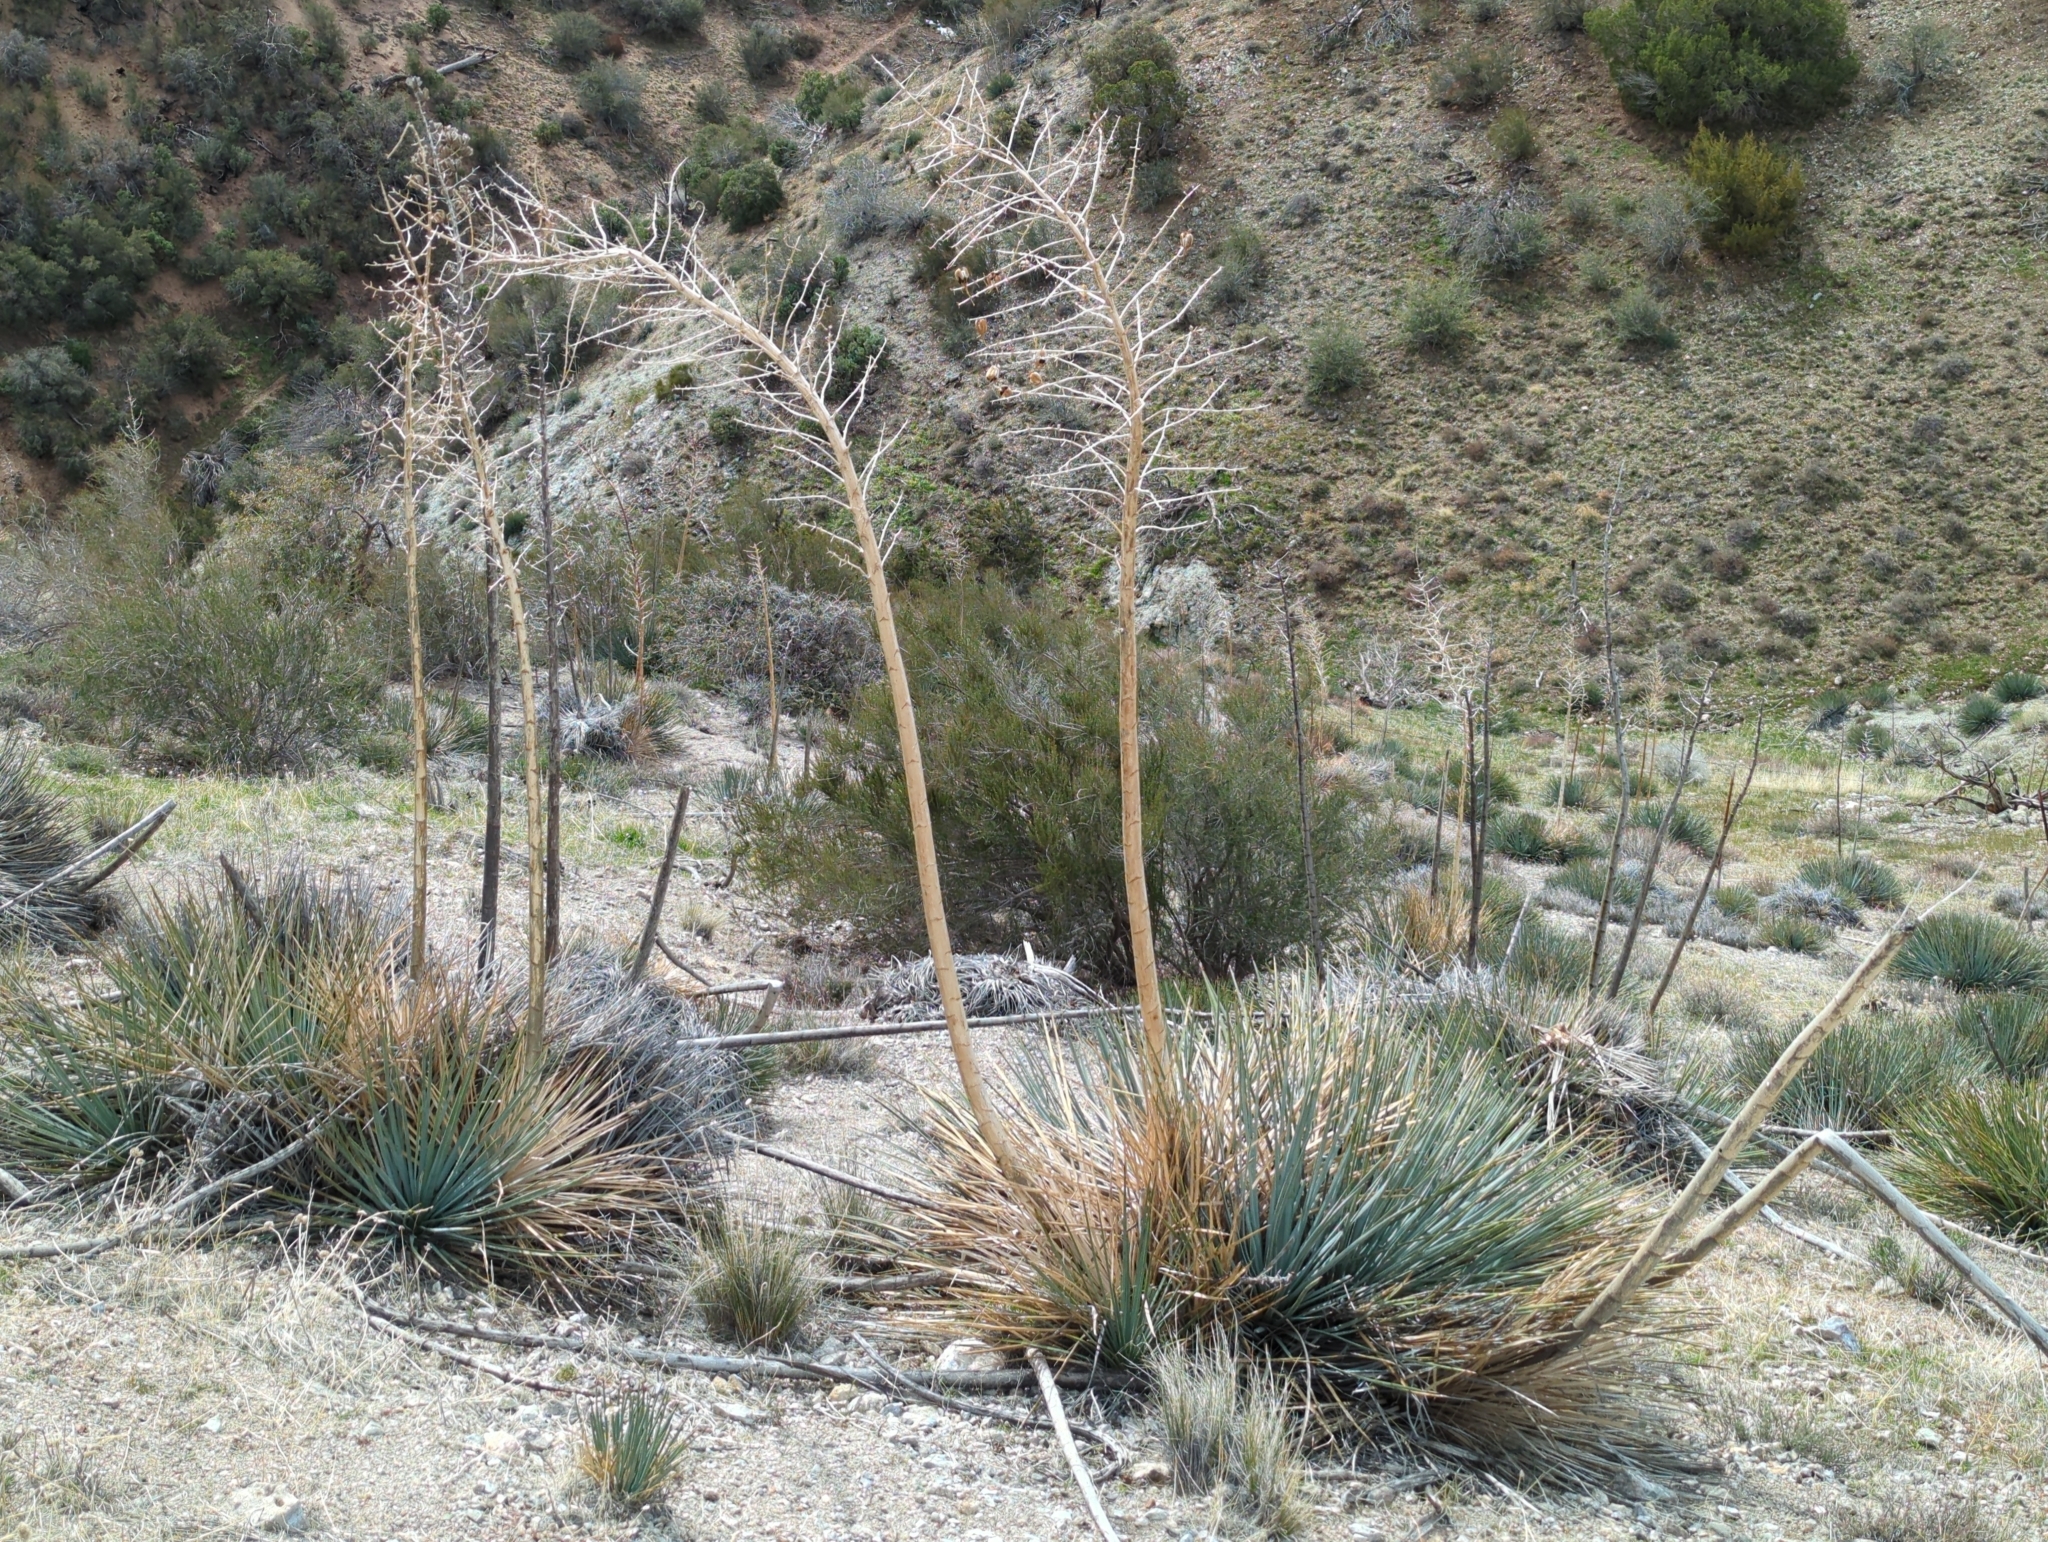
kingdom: Plantae
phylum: Tracheophyta
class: Liliopsida
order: Asparagales
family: Asparagaceae
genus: Hesperoyucca
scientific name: Hesperoyucca whipplei
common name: Our lord's-candle
